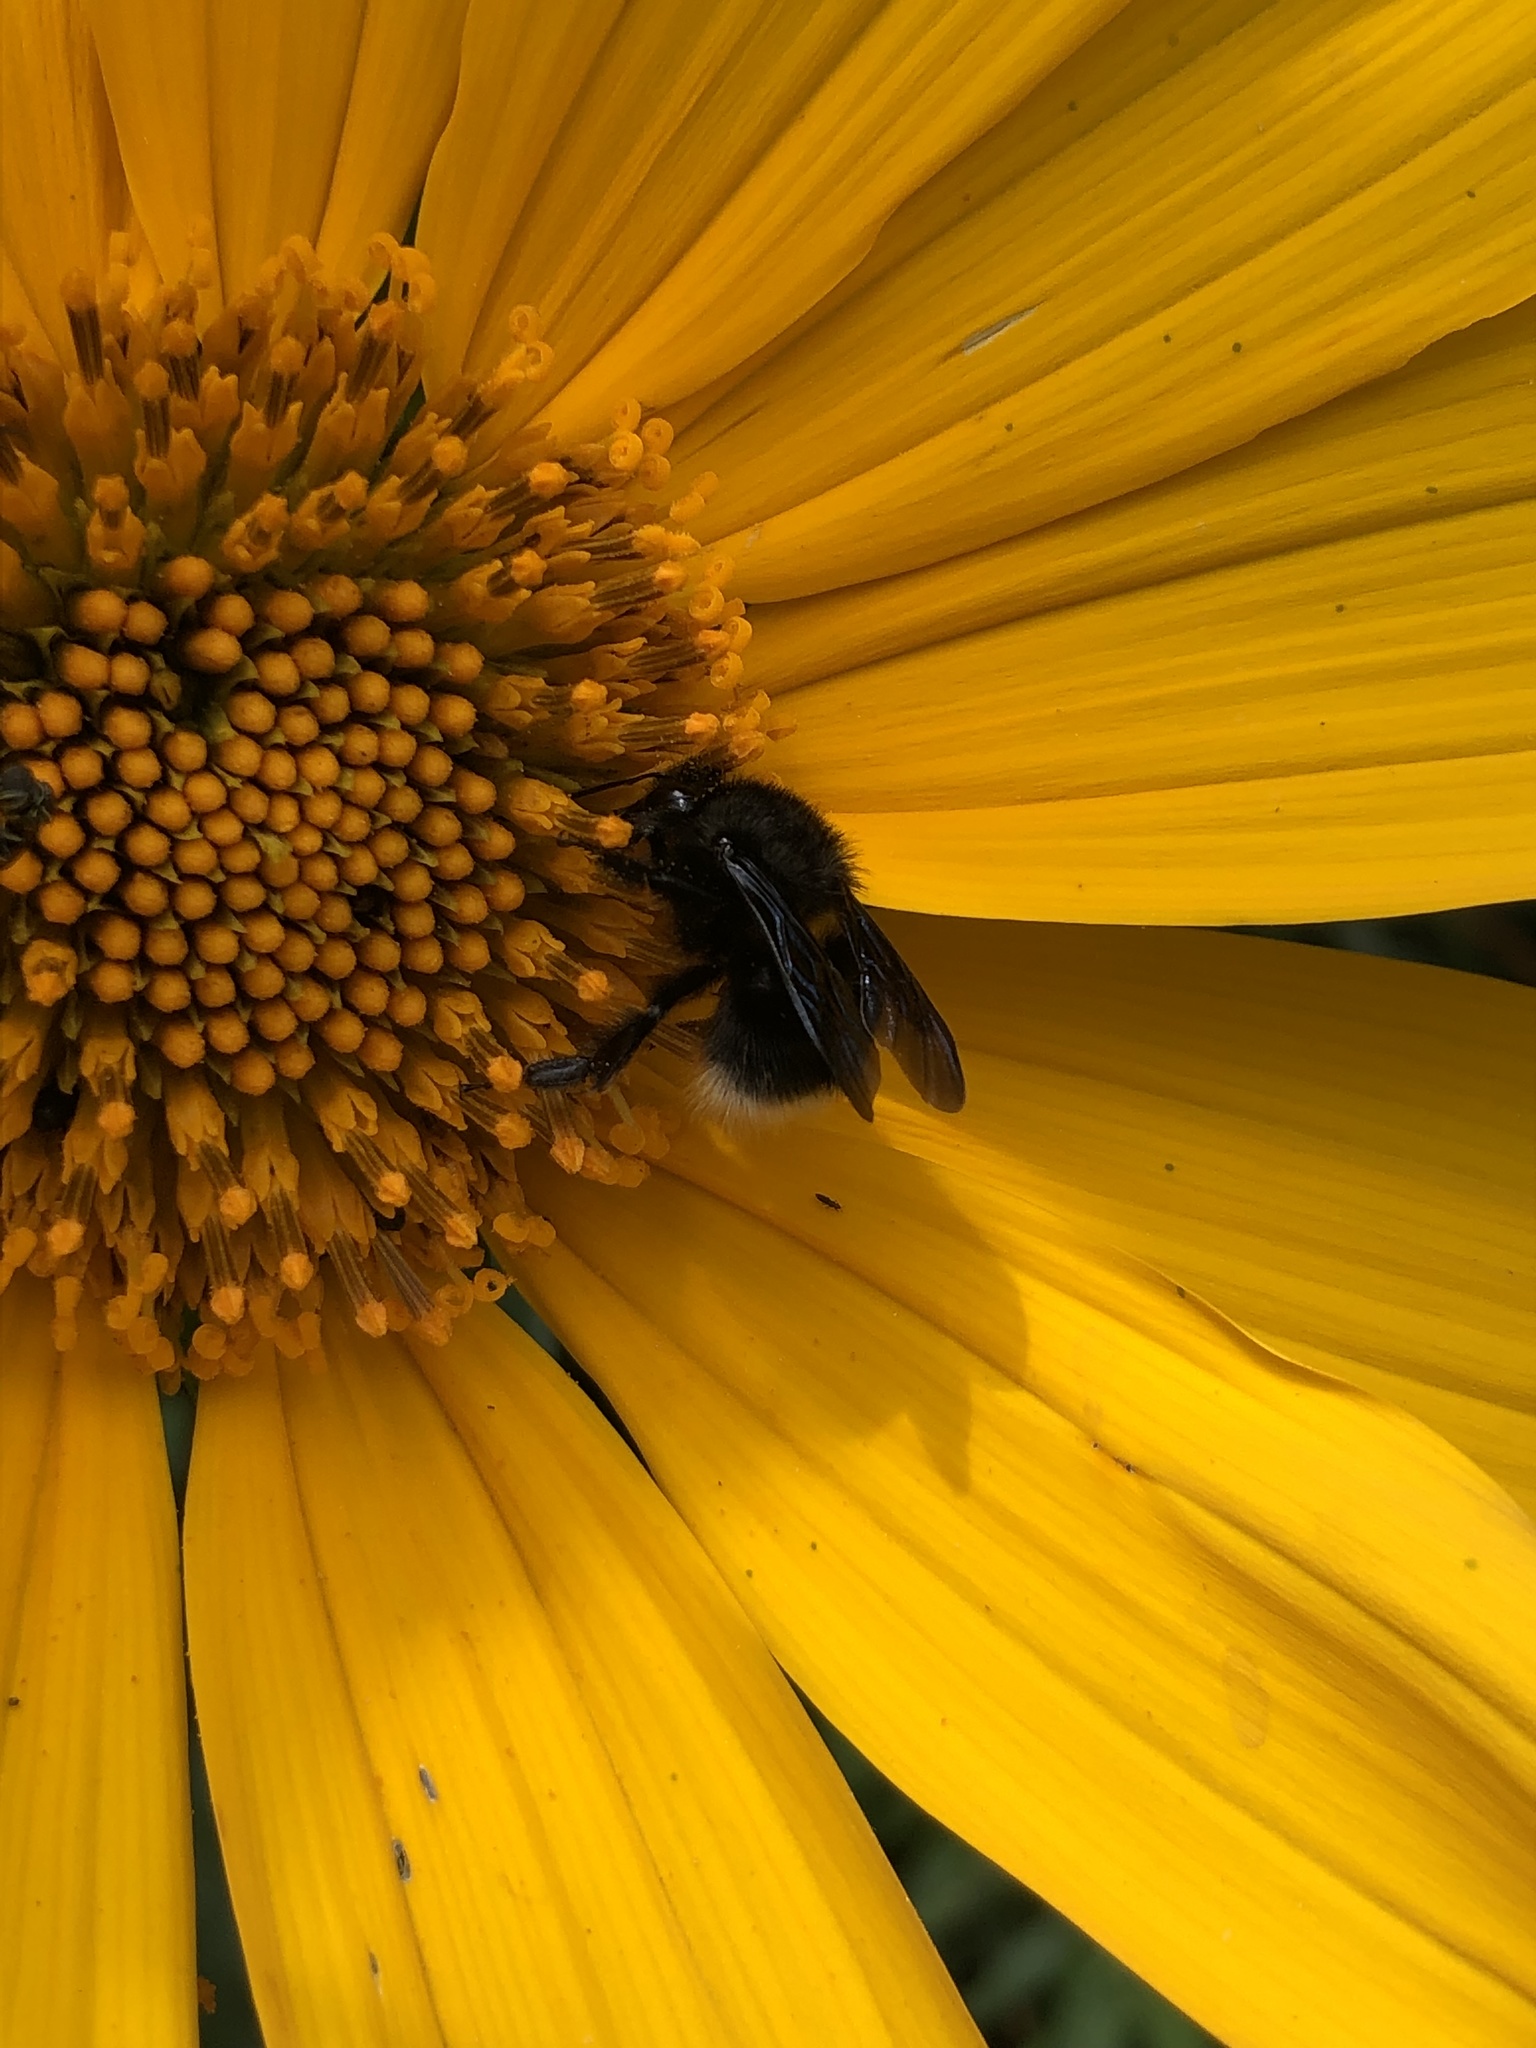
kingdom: Animalia
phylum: Arthropoda
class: Insecta
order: Hymenoptera
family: Apidae
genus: Bombus
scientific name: Bombus melaleucus
